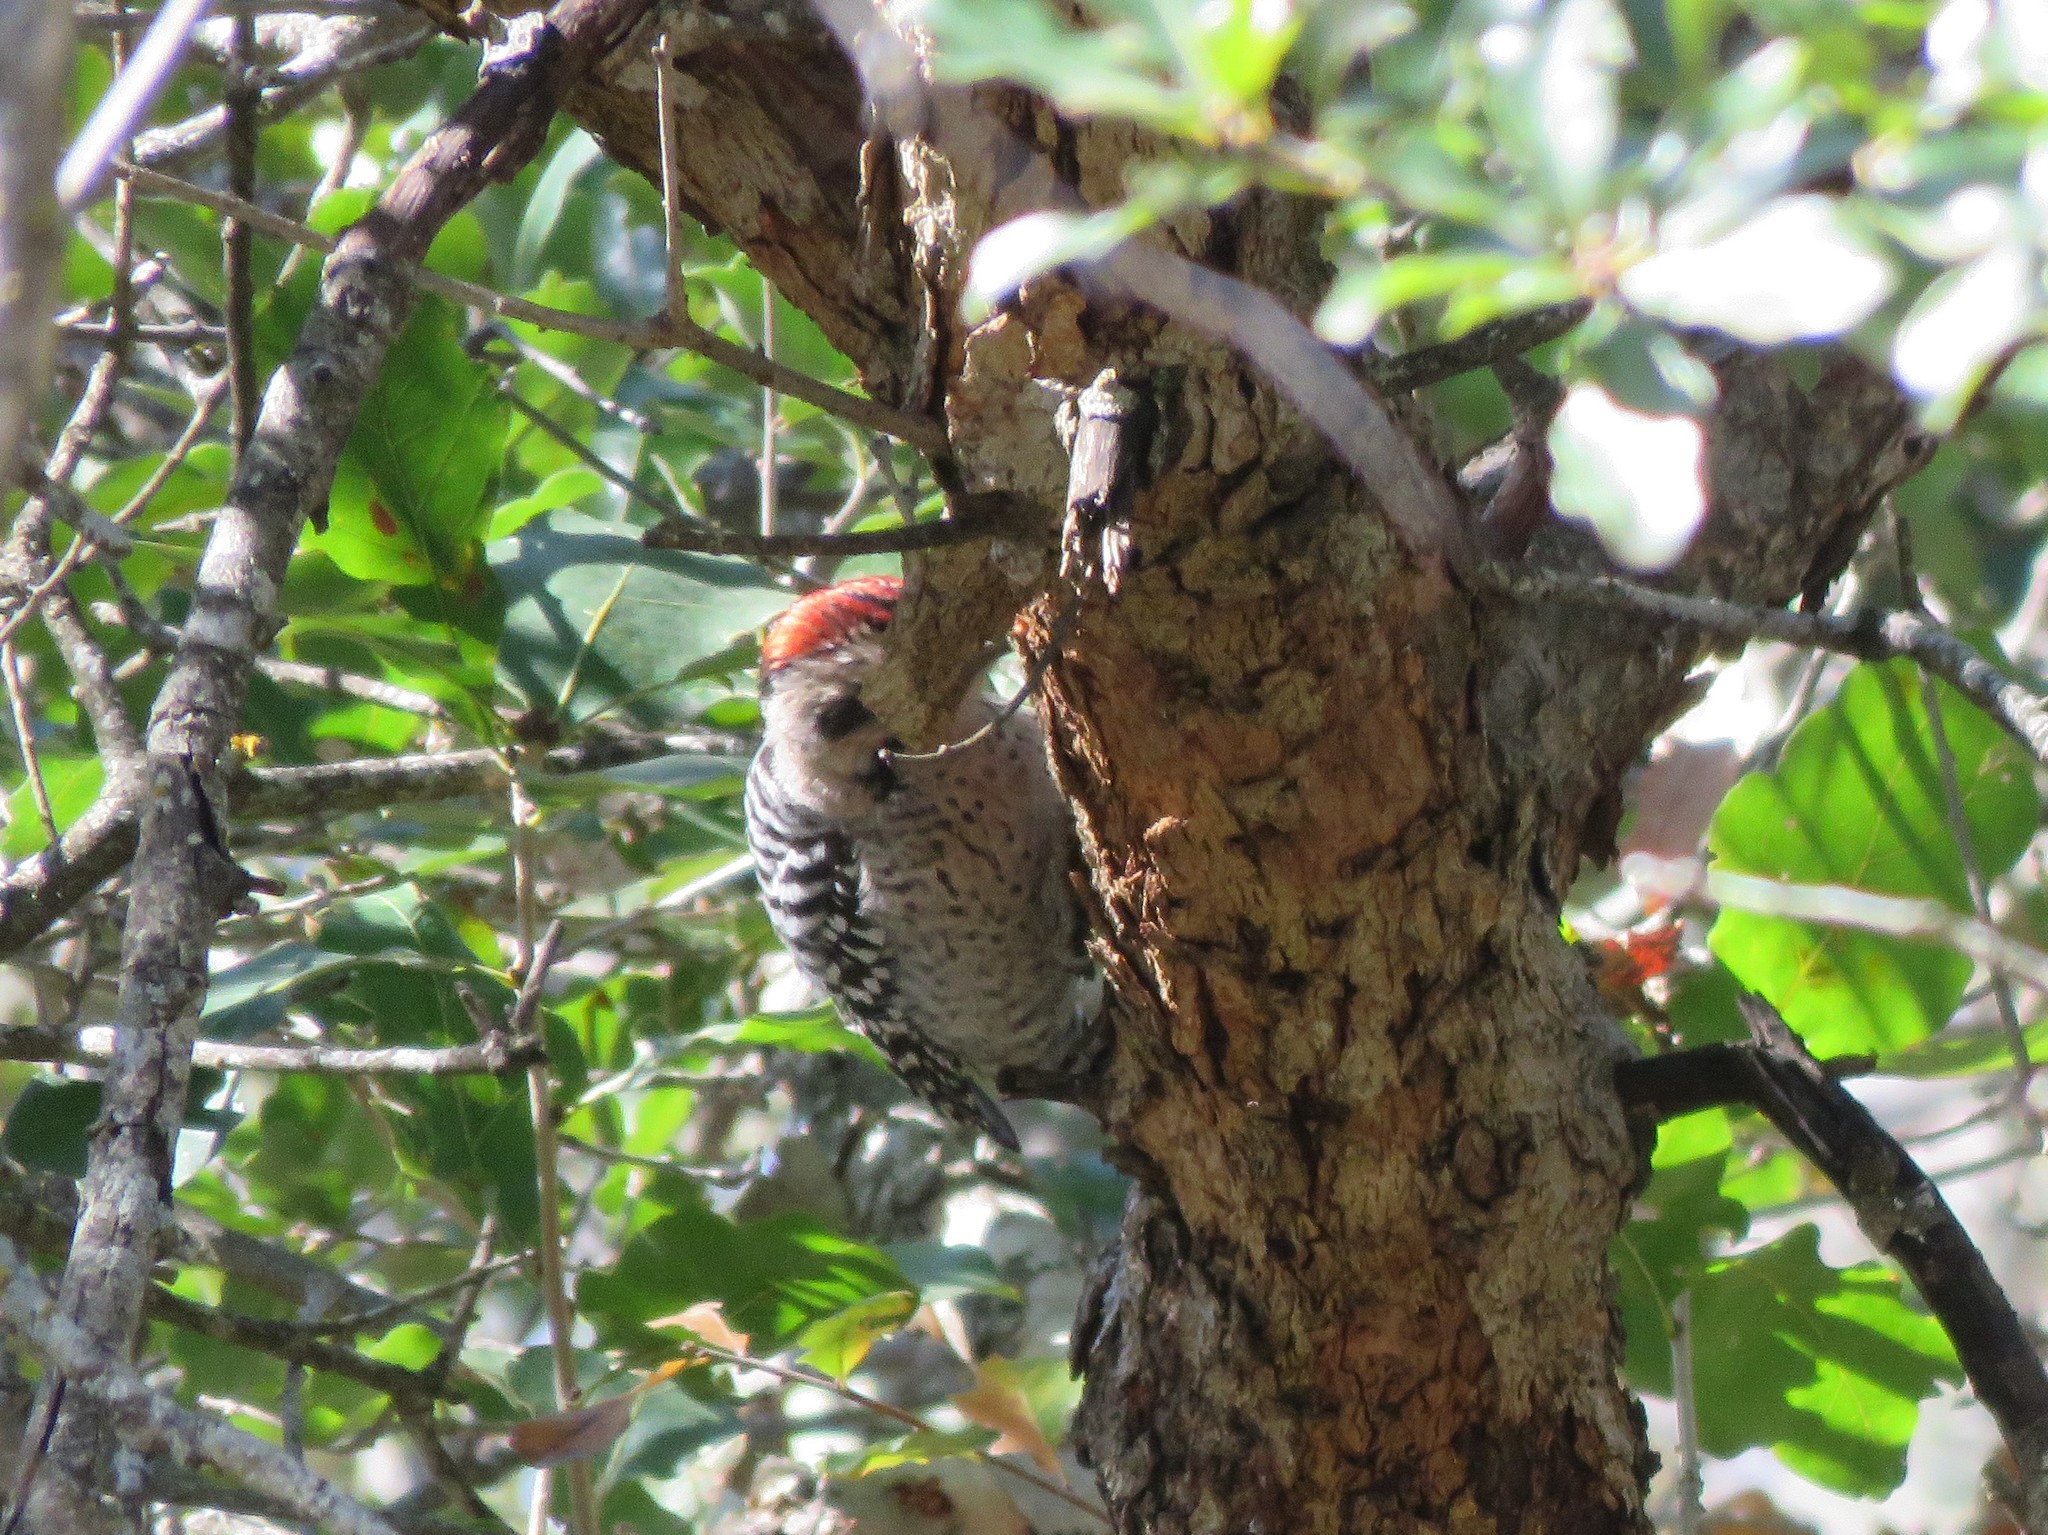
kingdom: Animalia
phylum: Chordata
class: Aves
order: Piciformes
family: Picidae
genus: Dryobates
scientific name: Dryobates scalaris
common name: Ladder-backed woodpecker
